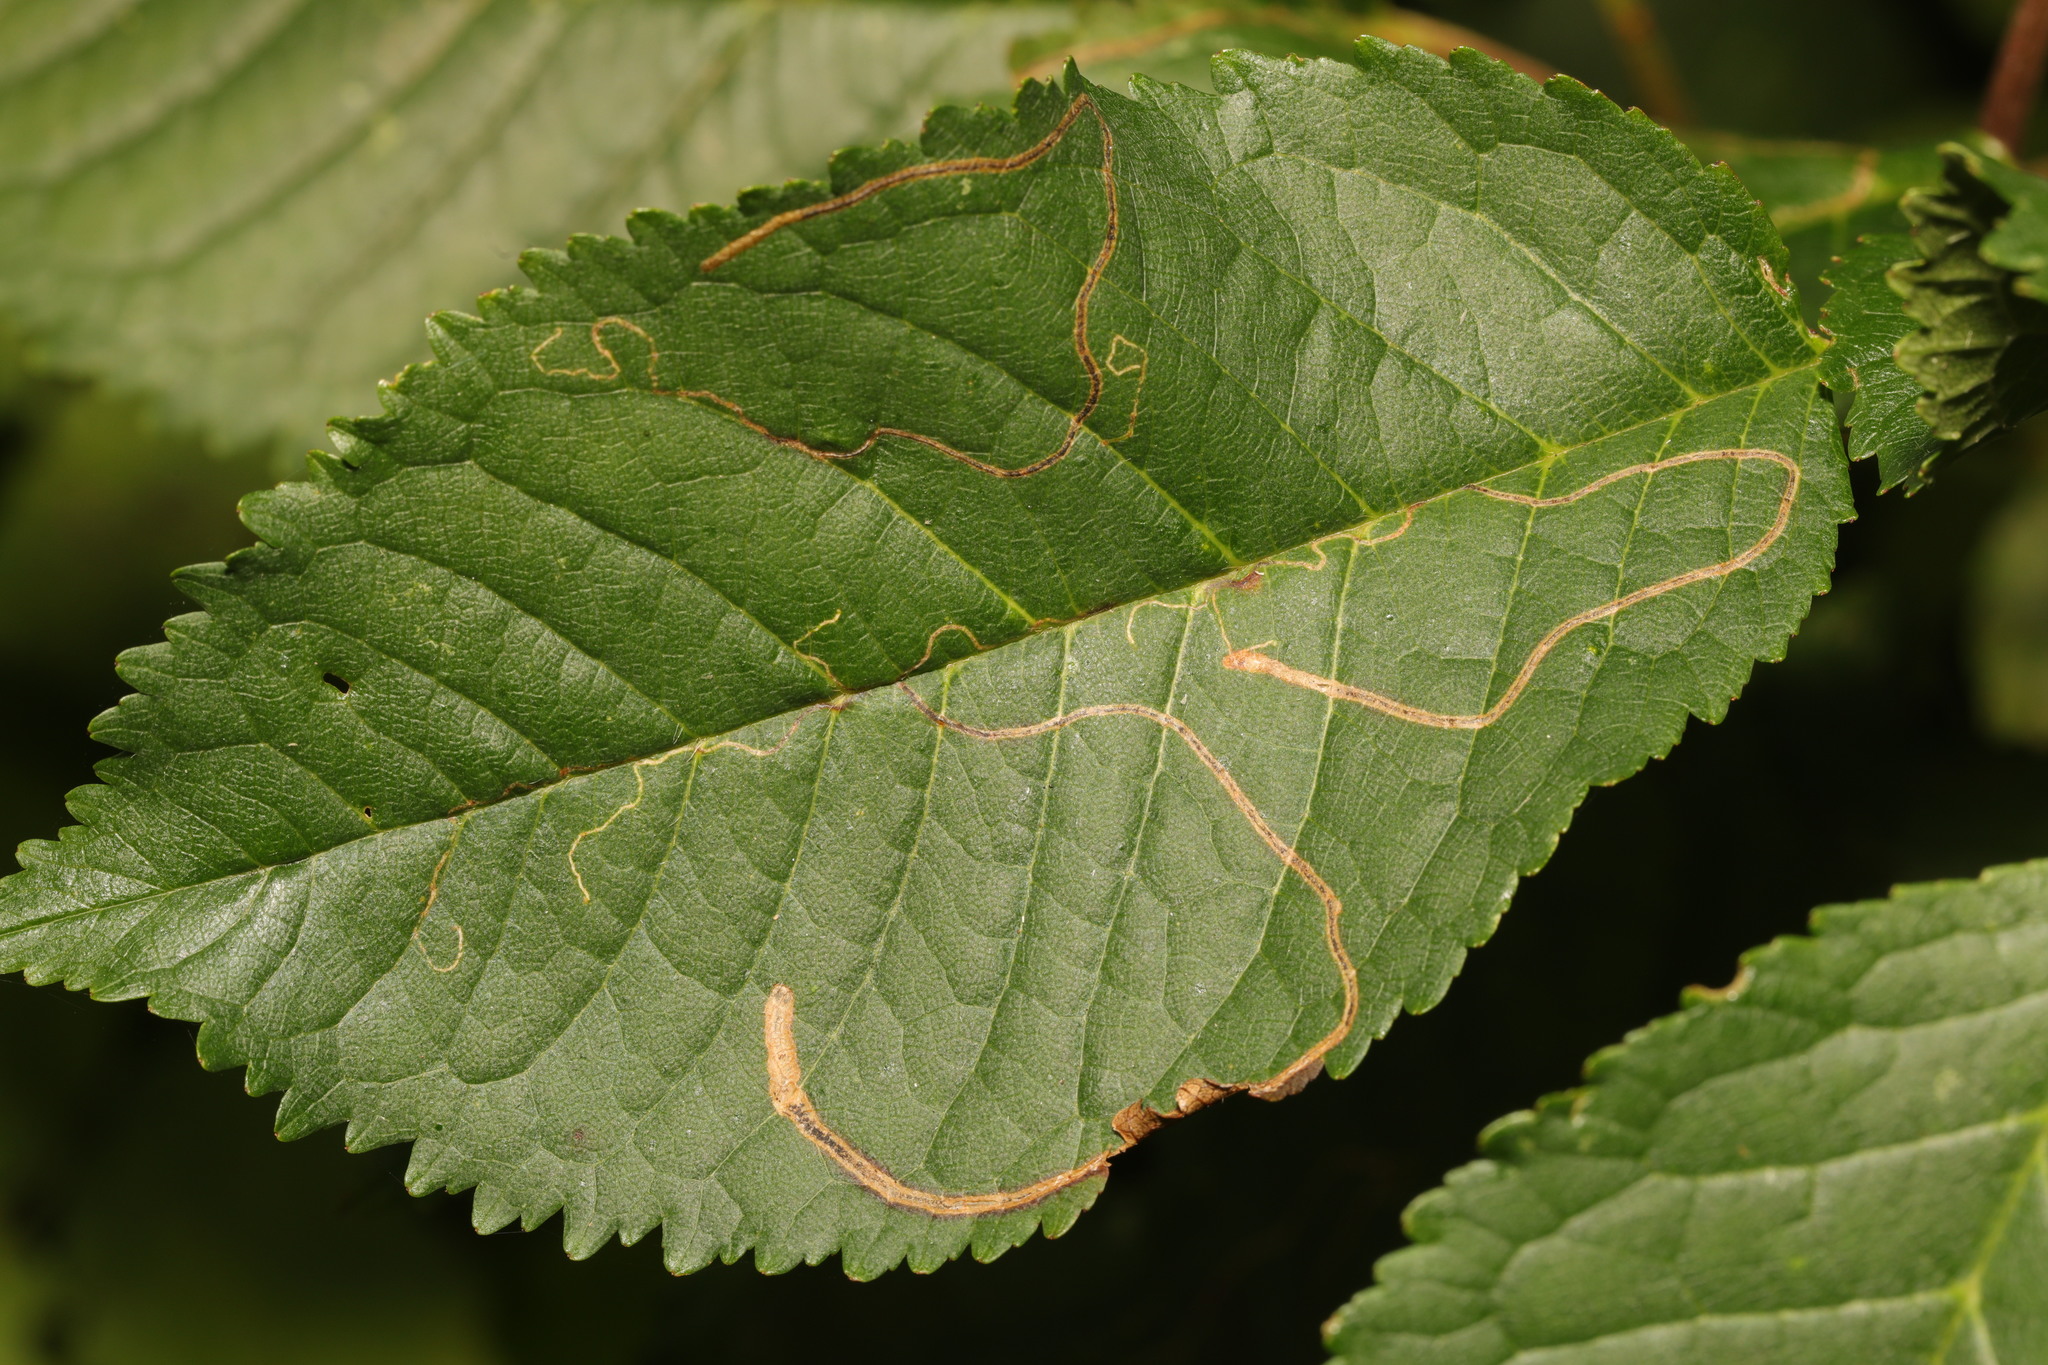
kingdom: Animalia
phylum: Arthropoda
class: Insecta
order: Lepidoptera
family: Lyonetiidae
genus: Lyonetia
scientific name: Lyonetia clerkella
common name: Apple leaf miner
